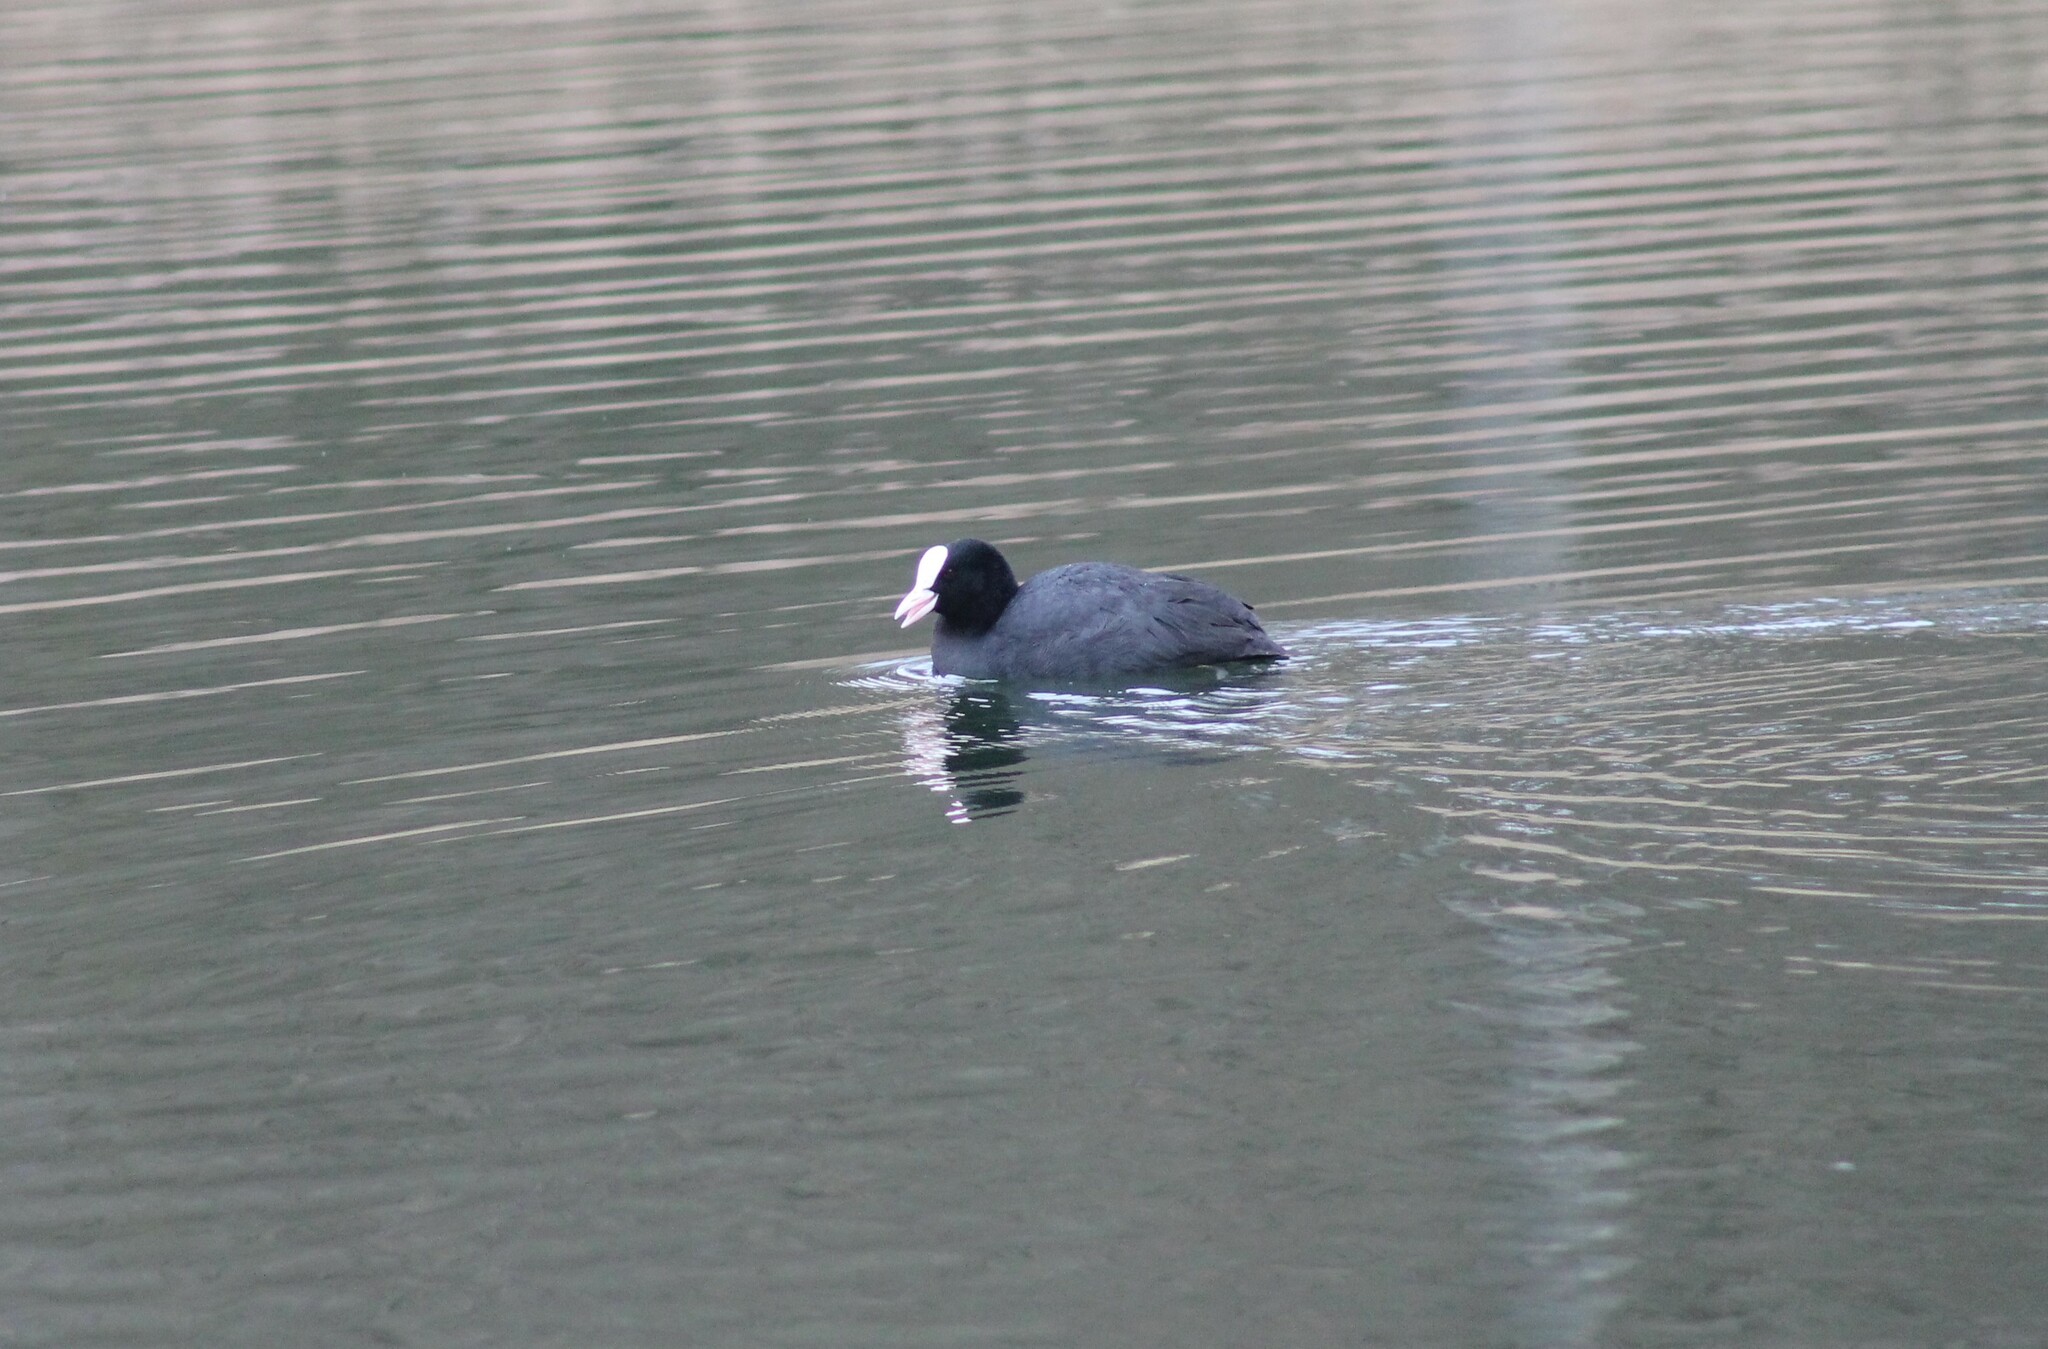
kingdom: Animalia
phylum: Chordata
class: Aves
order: Gruiformes
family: Rallidae
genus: Fulica
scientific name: Fulica atra
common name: Eurasian coot
